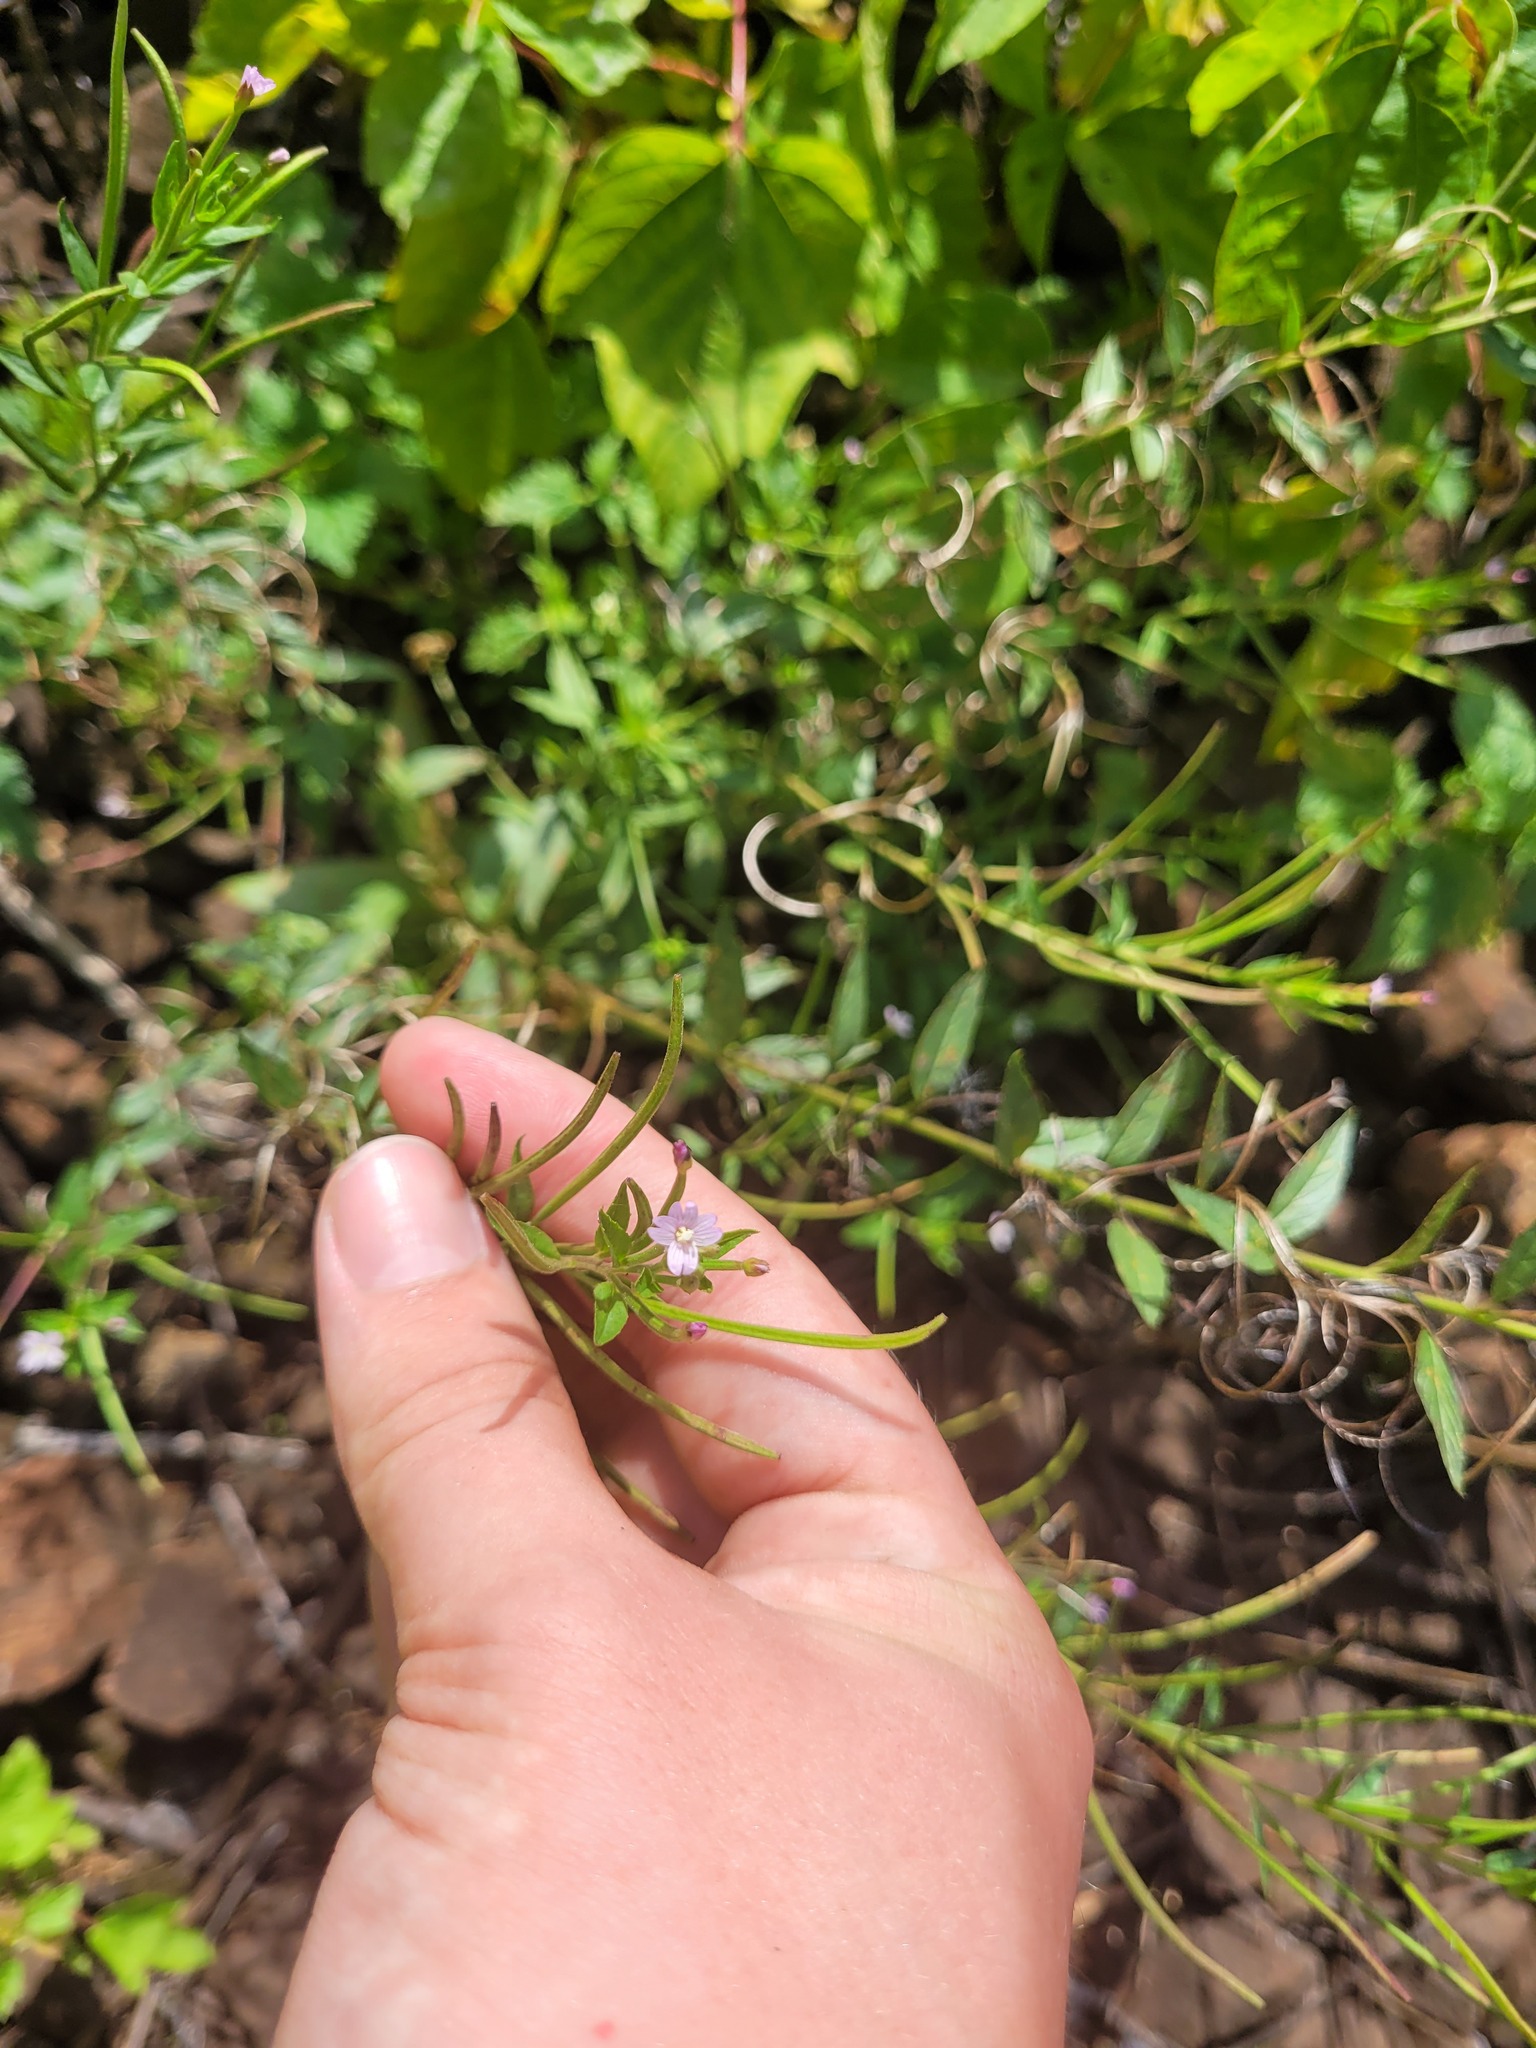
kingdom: Plantae
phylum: Tracheophyta
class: Magnoliopsida
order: Myrtales
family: Onagraceae
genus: Epilobium
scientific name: Epilobium ciliatum
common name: American willowherb
